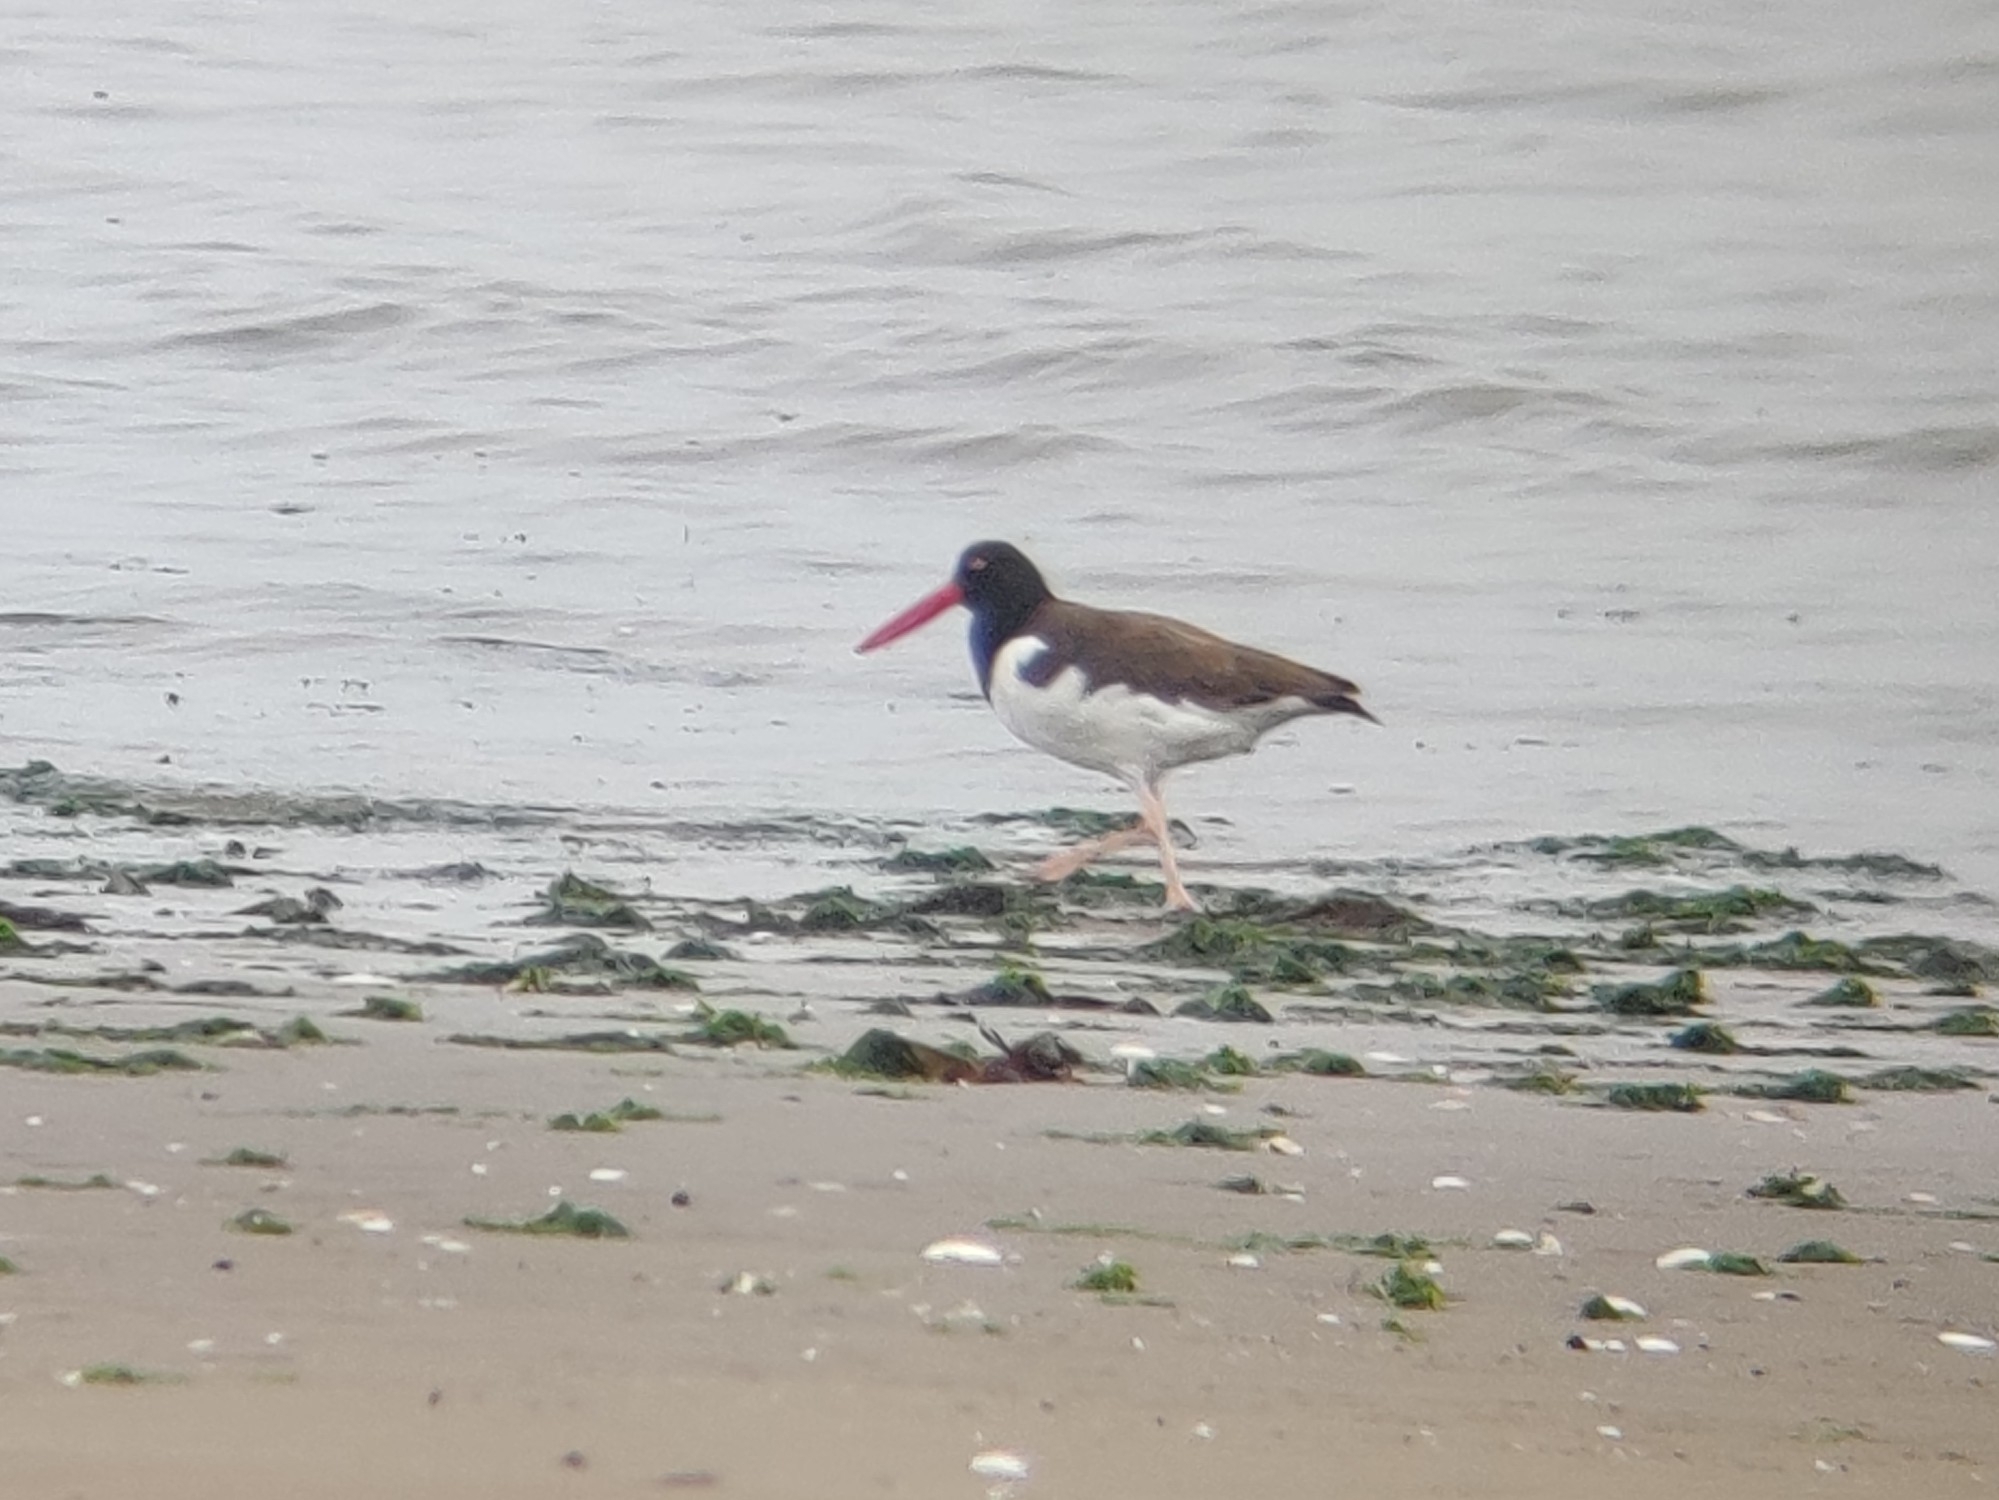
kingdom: Animalia
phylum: Chordata
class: Aves
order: Charadriiformes
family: Haematopodidae
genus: Haematopus
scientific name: Haematopus palliatus
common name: American oystercatcher
